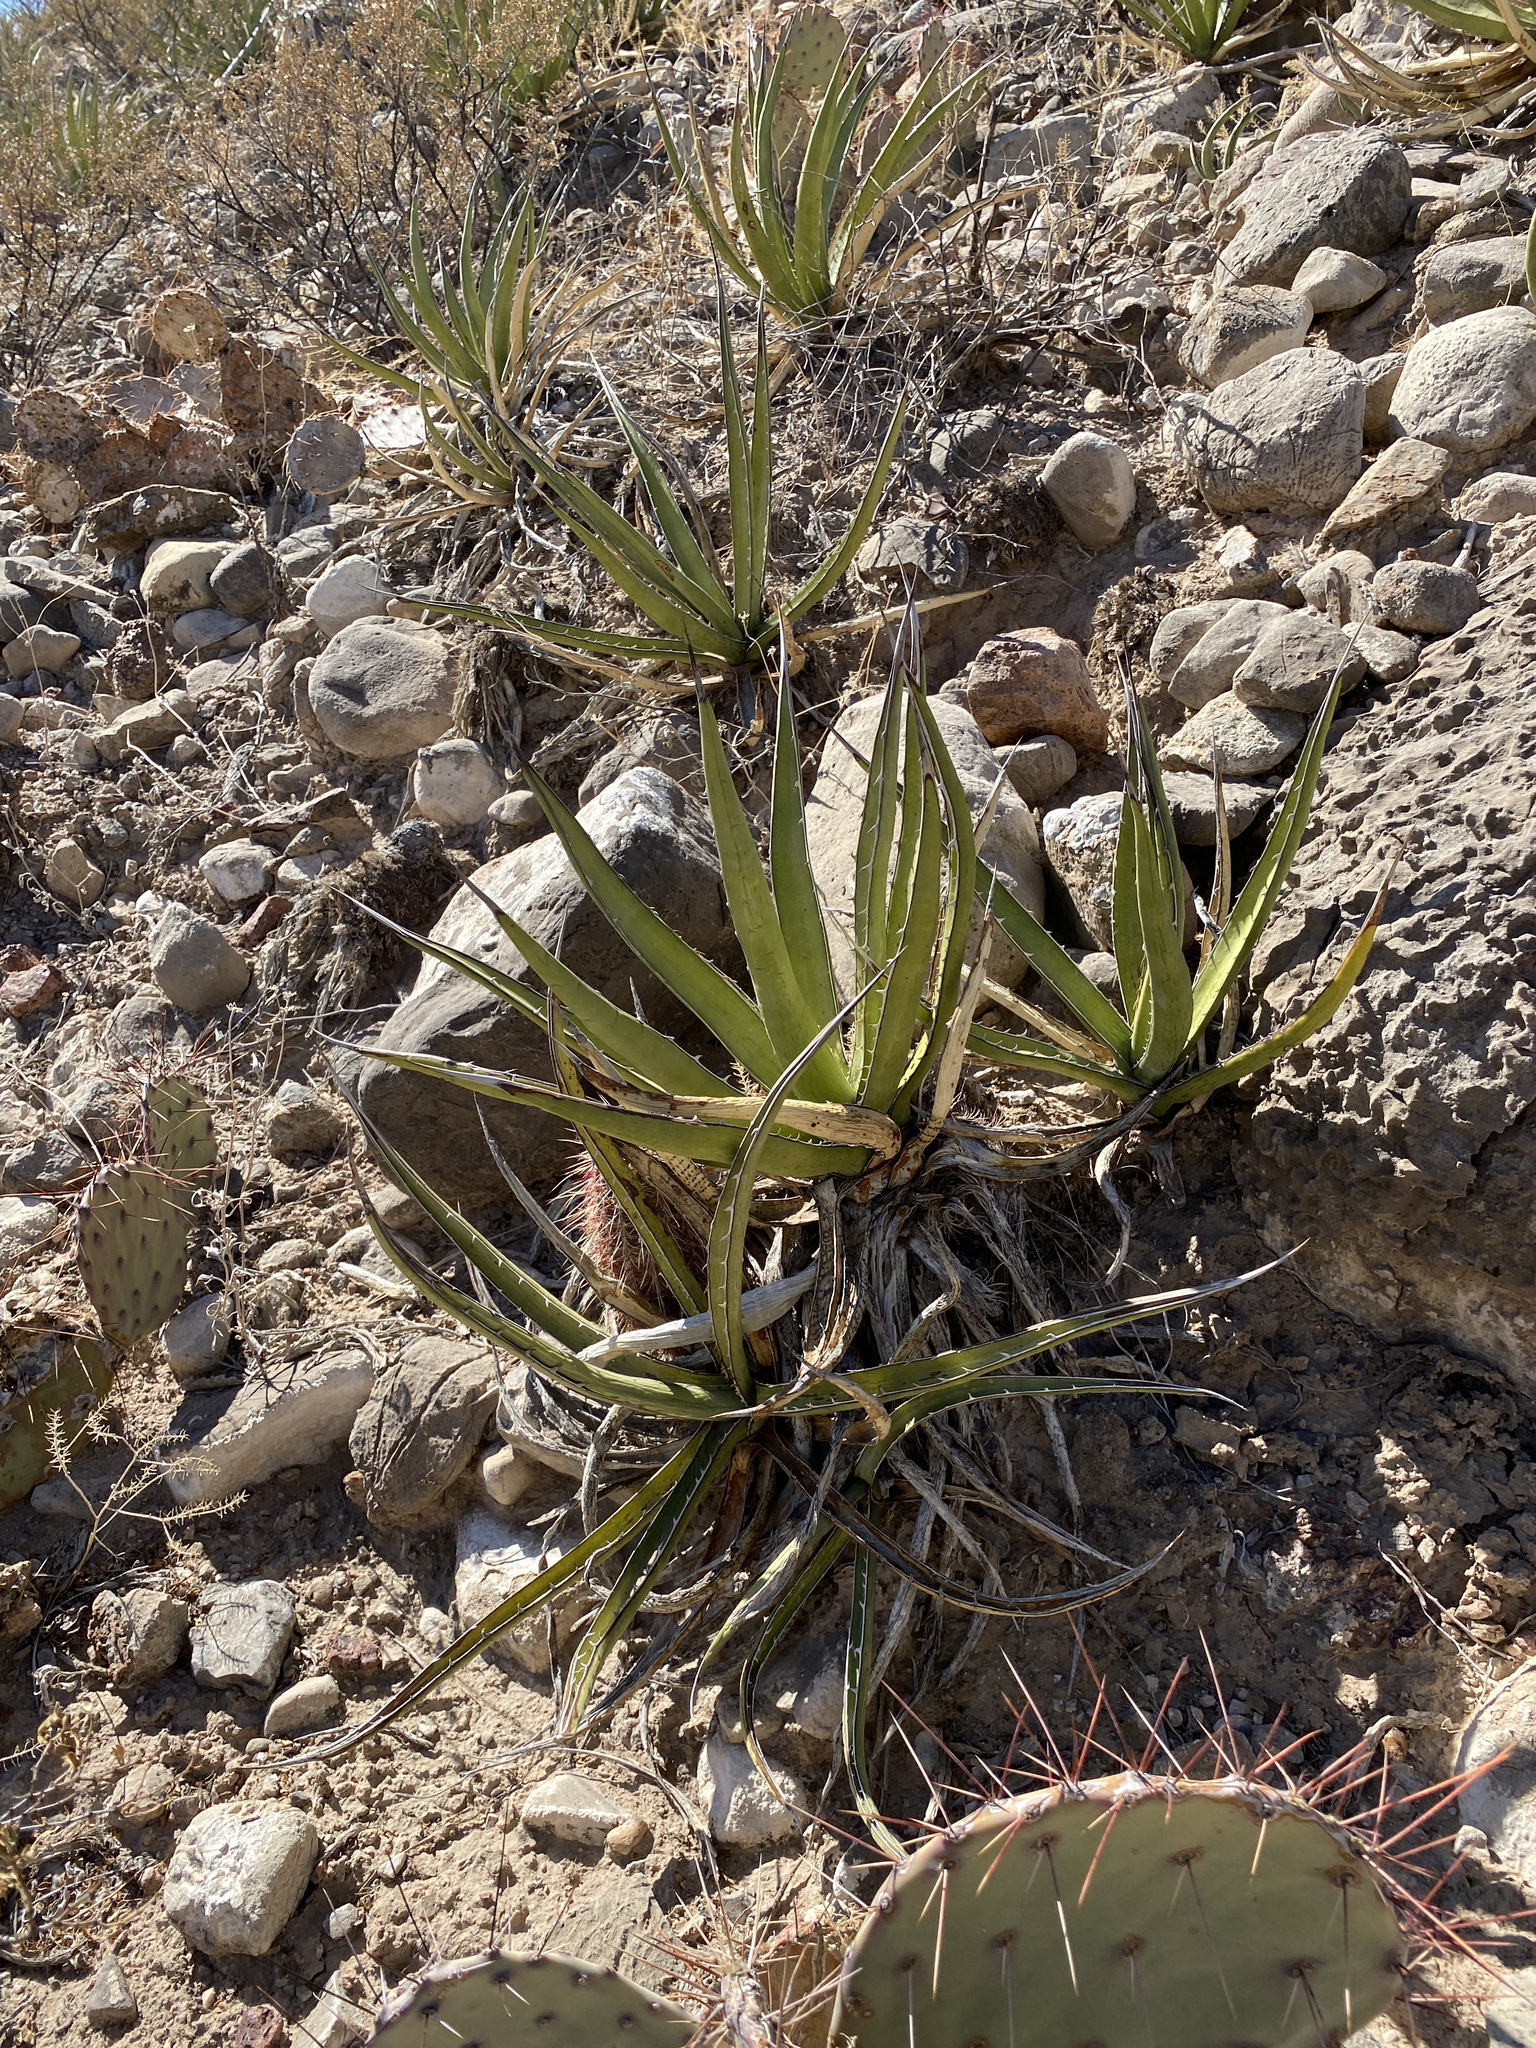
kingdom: Plantae
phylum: Tracheophyta
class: Liliopsida
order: Asparagales
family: Asparagaceae
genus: Agave
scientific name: Agave lechuguilla
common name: Lecheguilla agave
